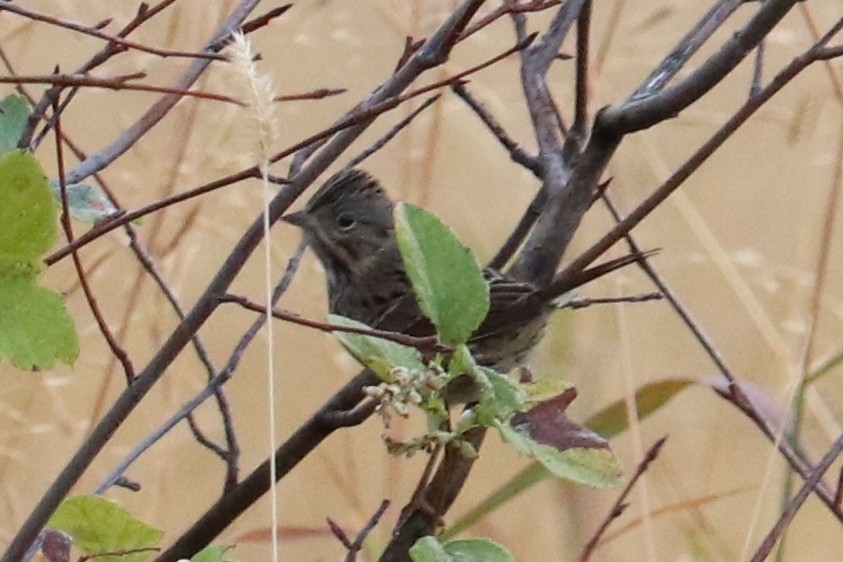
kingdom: Animalia
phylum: Chordata
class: Aves
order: Passeriformes
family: Passerellidae
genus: Melospiza
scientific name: Melospiza lincolnii
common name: Lincoln's sparrow
